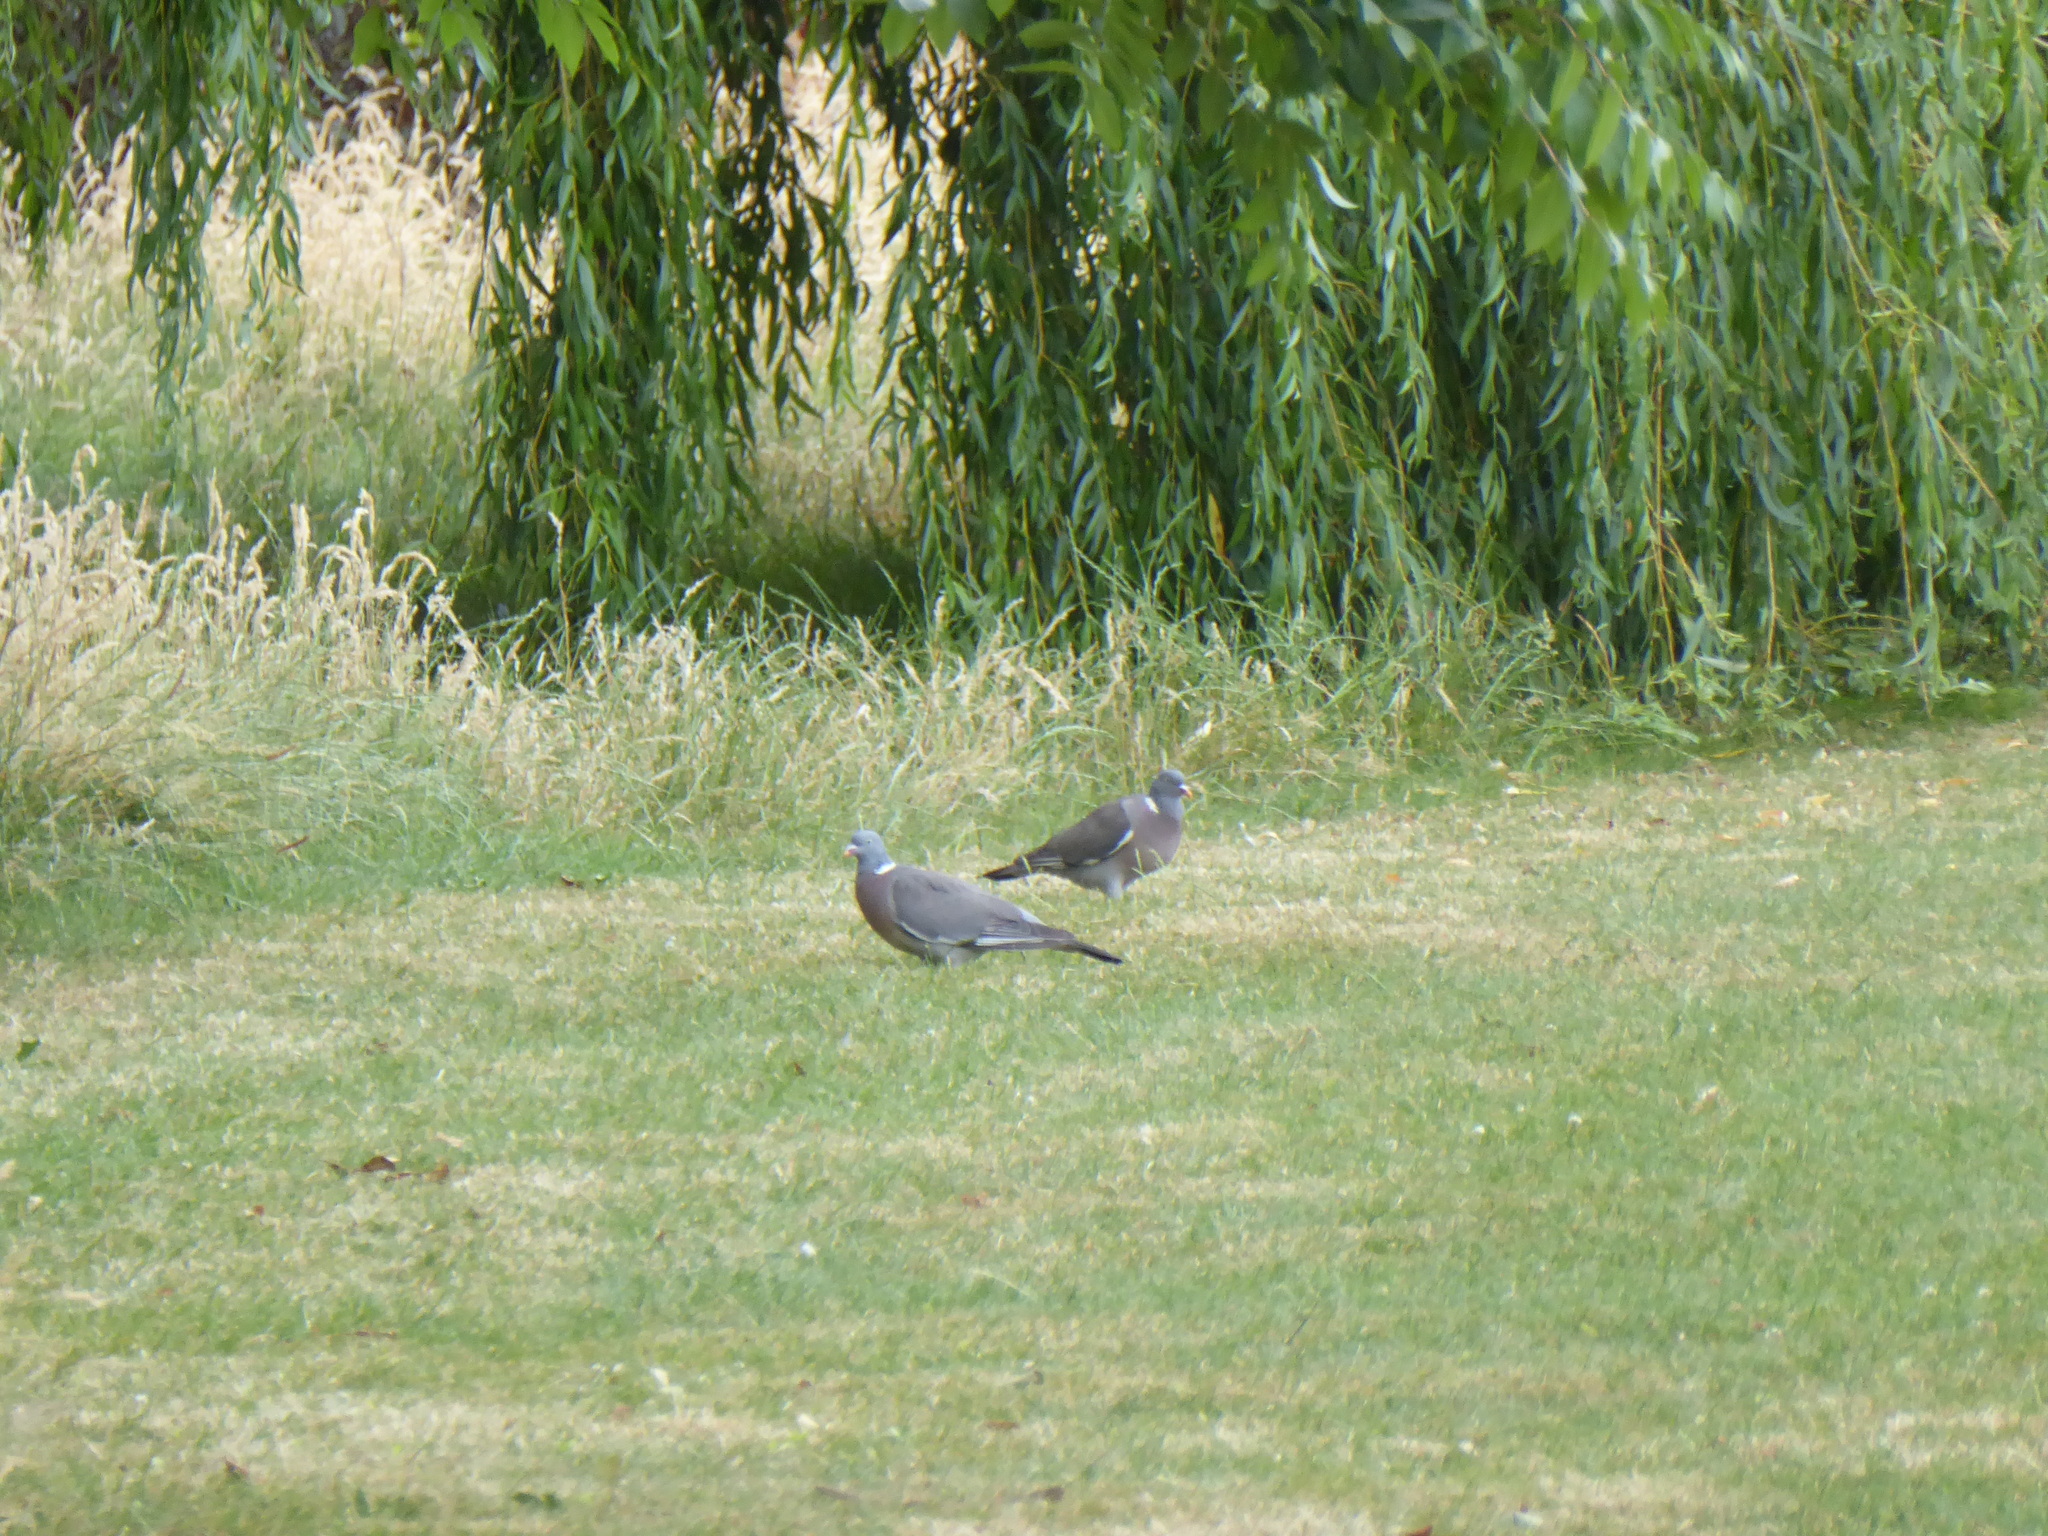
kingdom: Animalia
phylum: Chordata
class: Aves
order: Columbiformes
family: Columbidae
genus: Columba
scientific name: Columba palumbus
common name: Common wood pigeon
